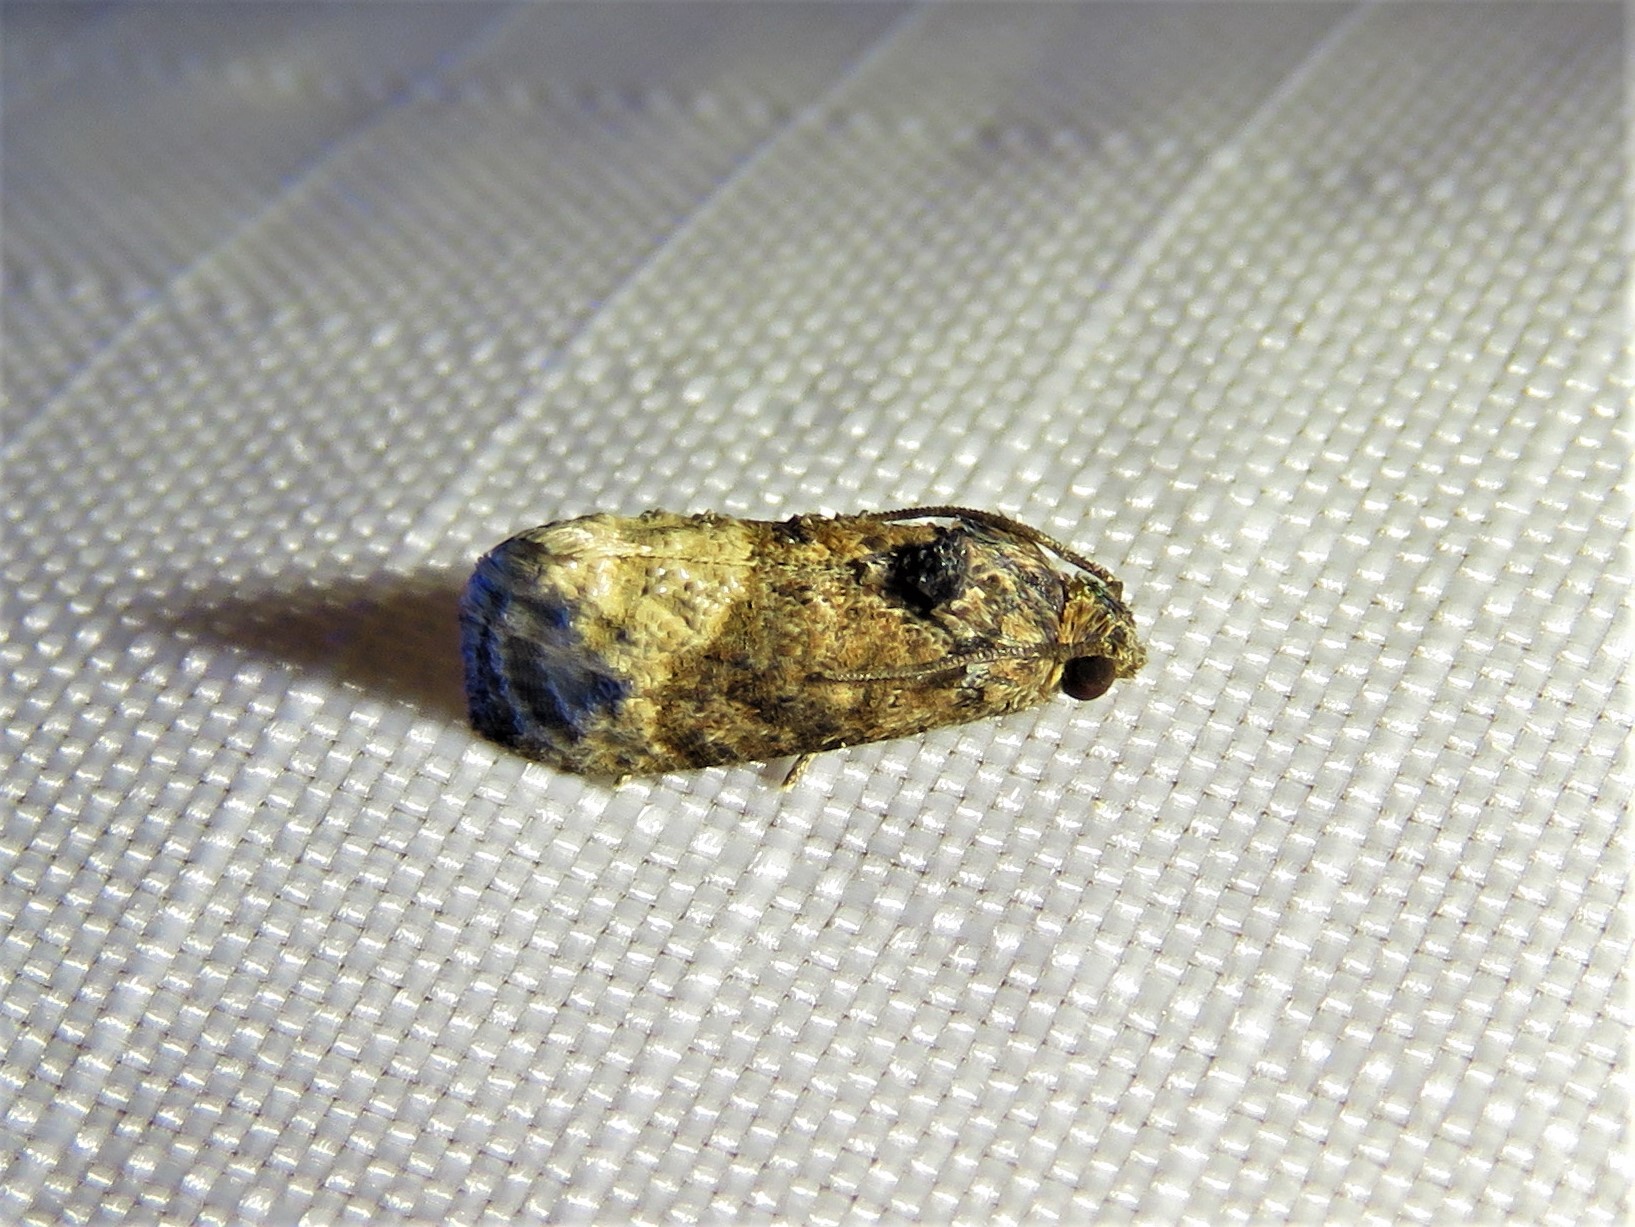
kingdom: Animalia
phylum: Arthropoda
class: Insecta
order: Lepidoptera
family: Tortricidae
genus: Ecdytolopha
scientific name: Ecdytolopha mana
